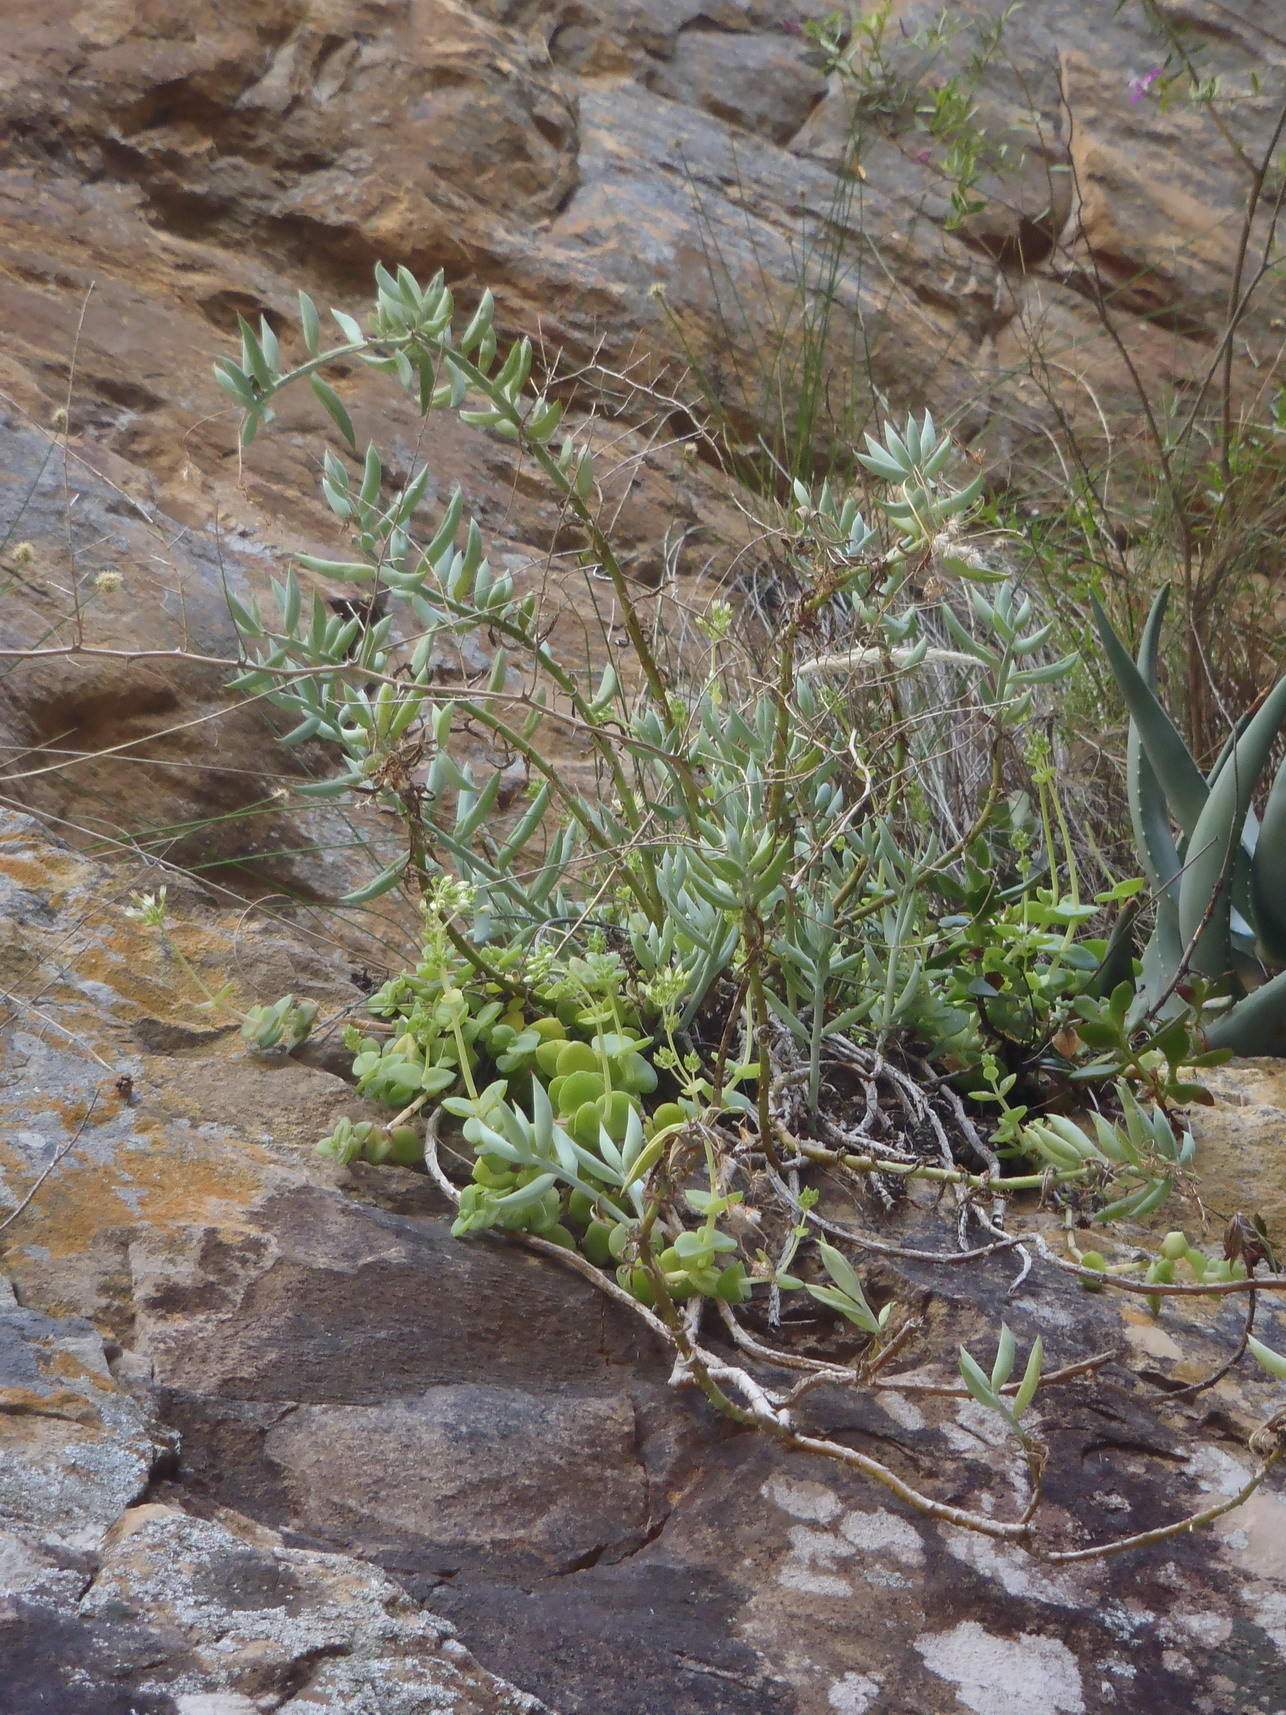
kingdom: Plantae
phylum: Tracheophyta
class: Magnoliopsida
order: Asterales
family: Asteraceae
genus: Curio
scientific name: Curio ficoides
